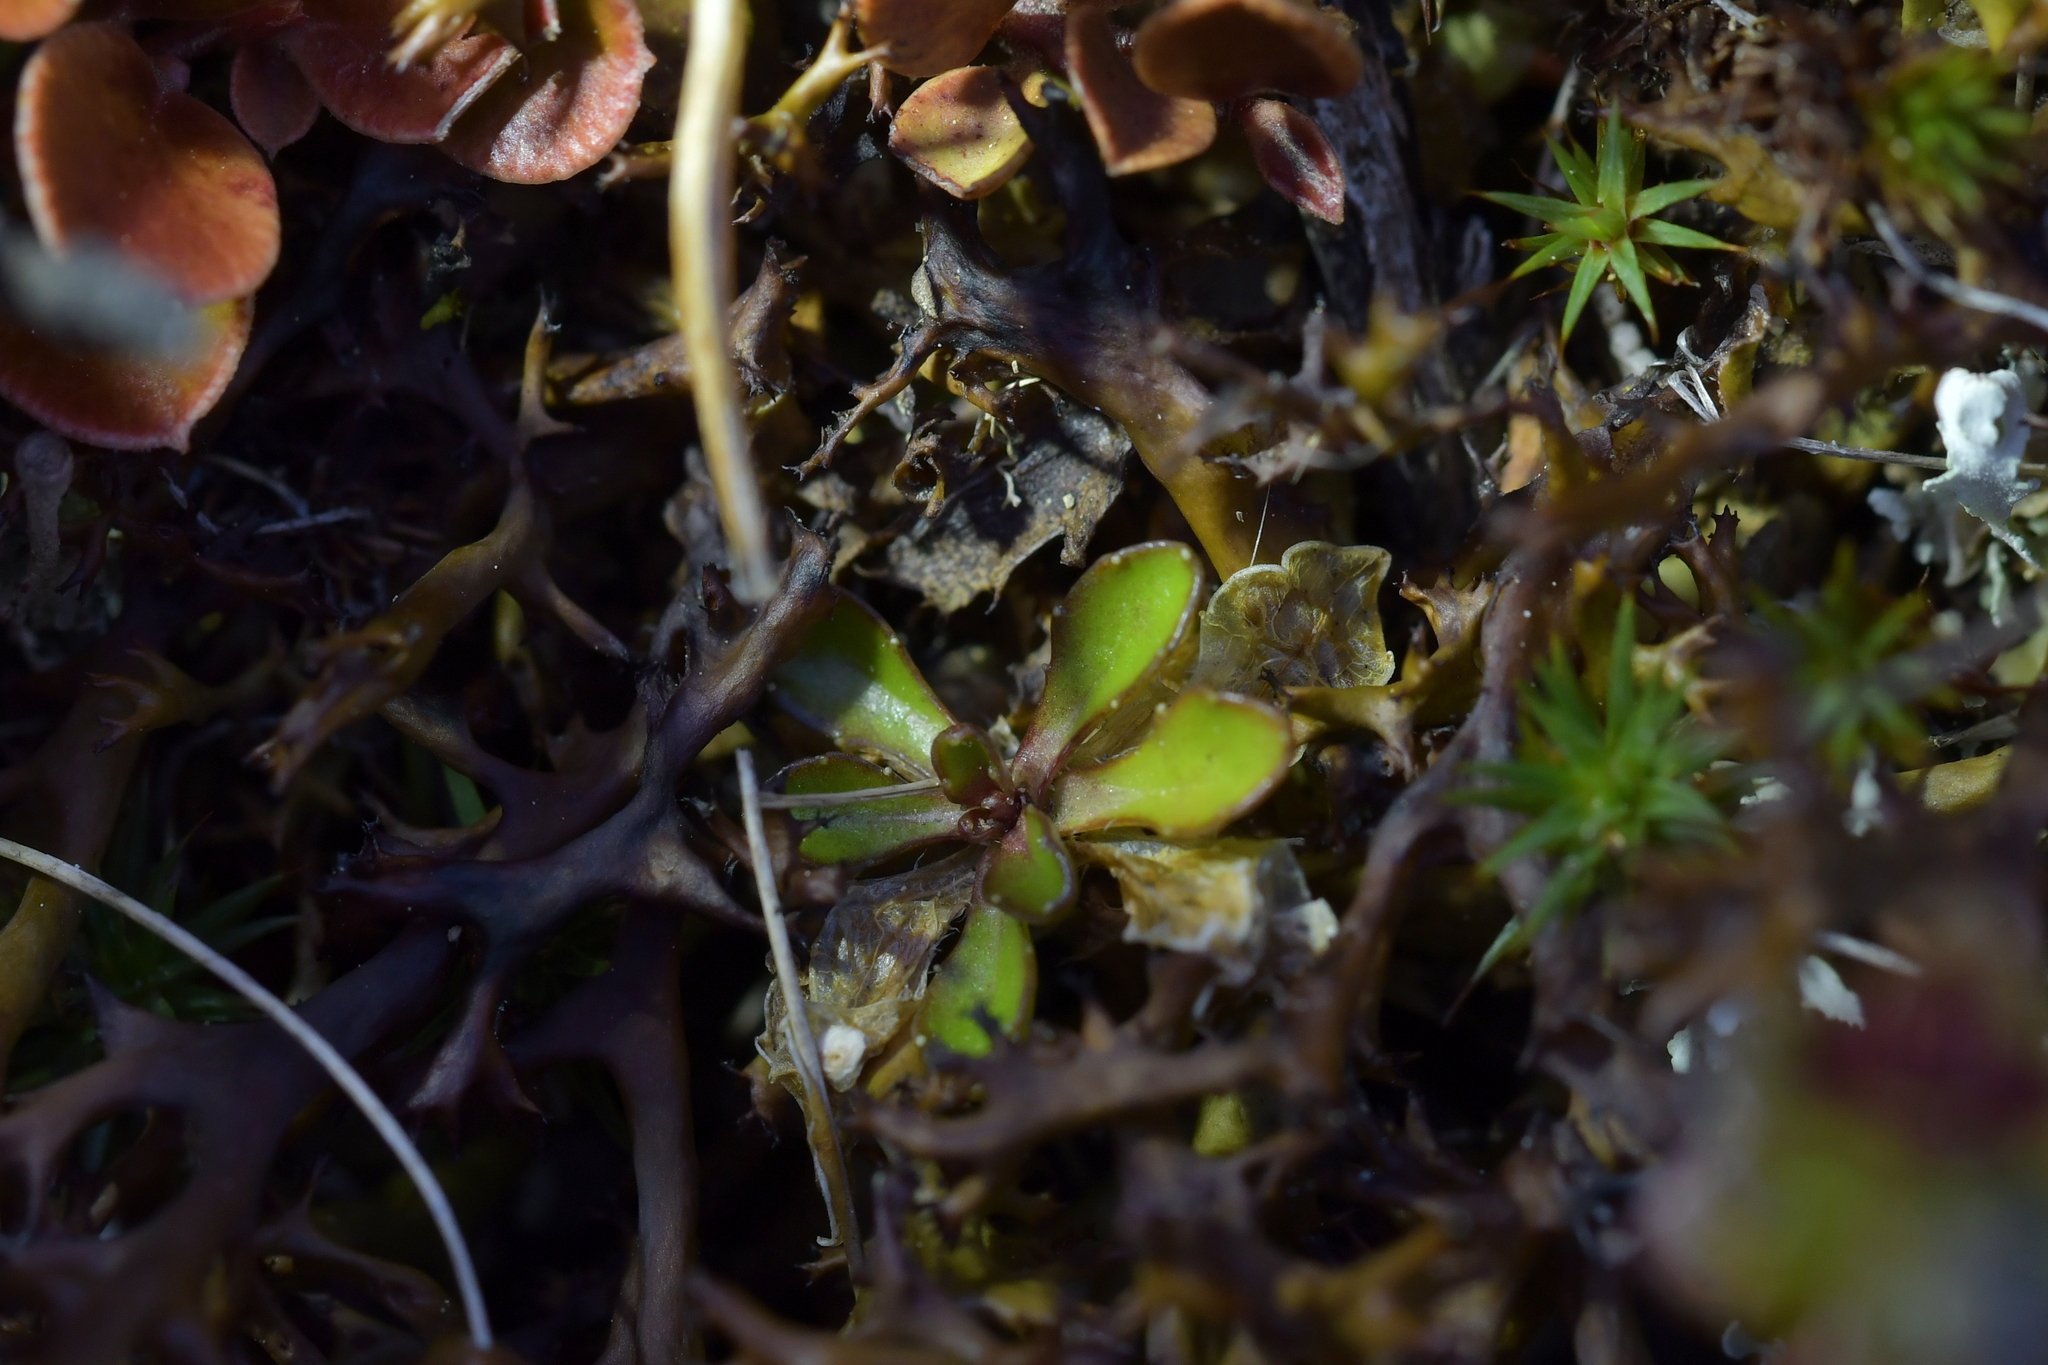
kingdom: Plantae
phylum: Tracheophyta
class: Magnoliopsida
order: Asterales
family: Campanulaceae
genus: Wahlenbergia
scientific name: Wahlenbergia albomarginata
